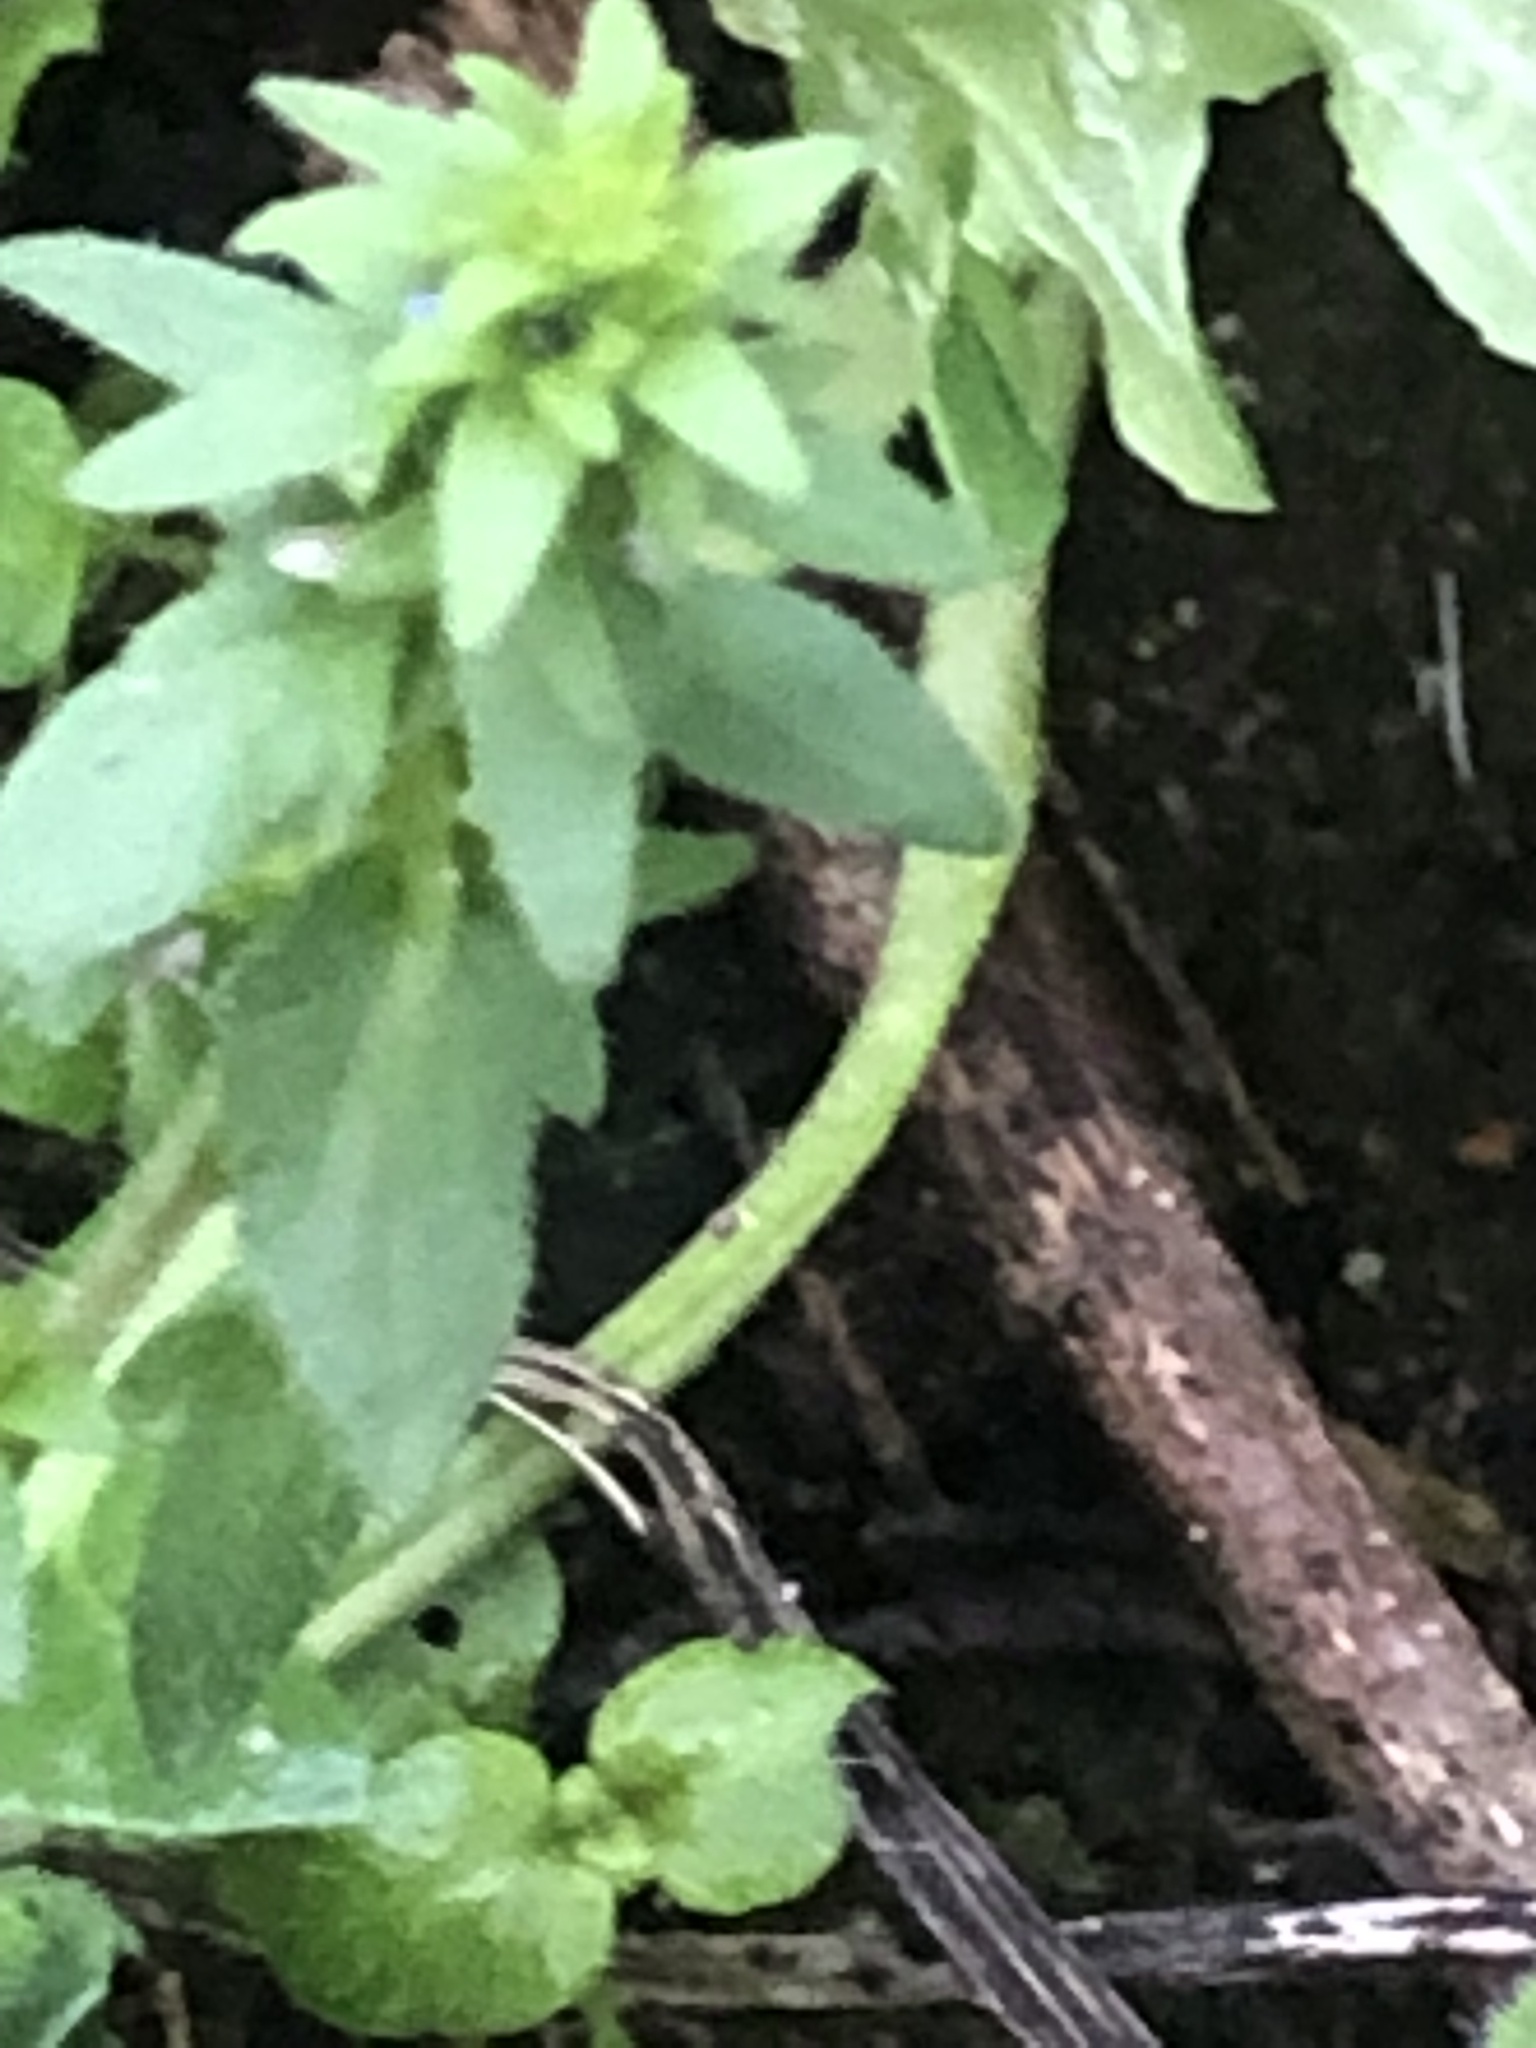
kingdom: Plantae
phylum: Tracheophyta
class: Magnoliopsida
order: Lamiales
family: Plantaginaceae
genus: Veronica
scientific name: Veronica arvensis
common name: Corn speedwell
